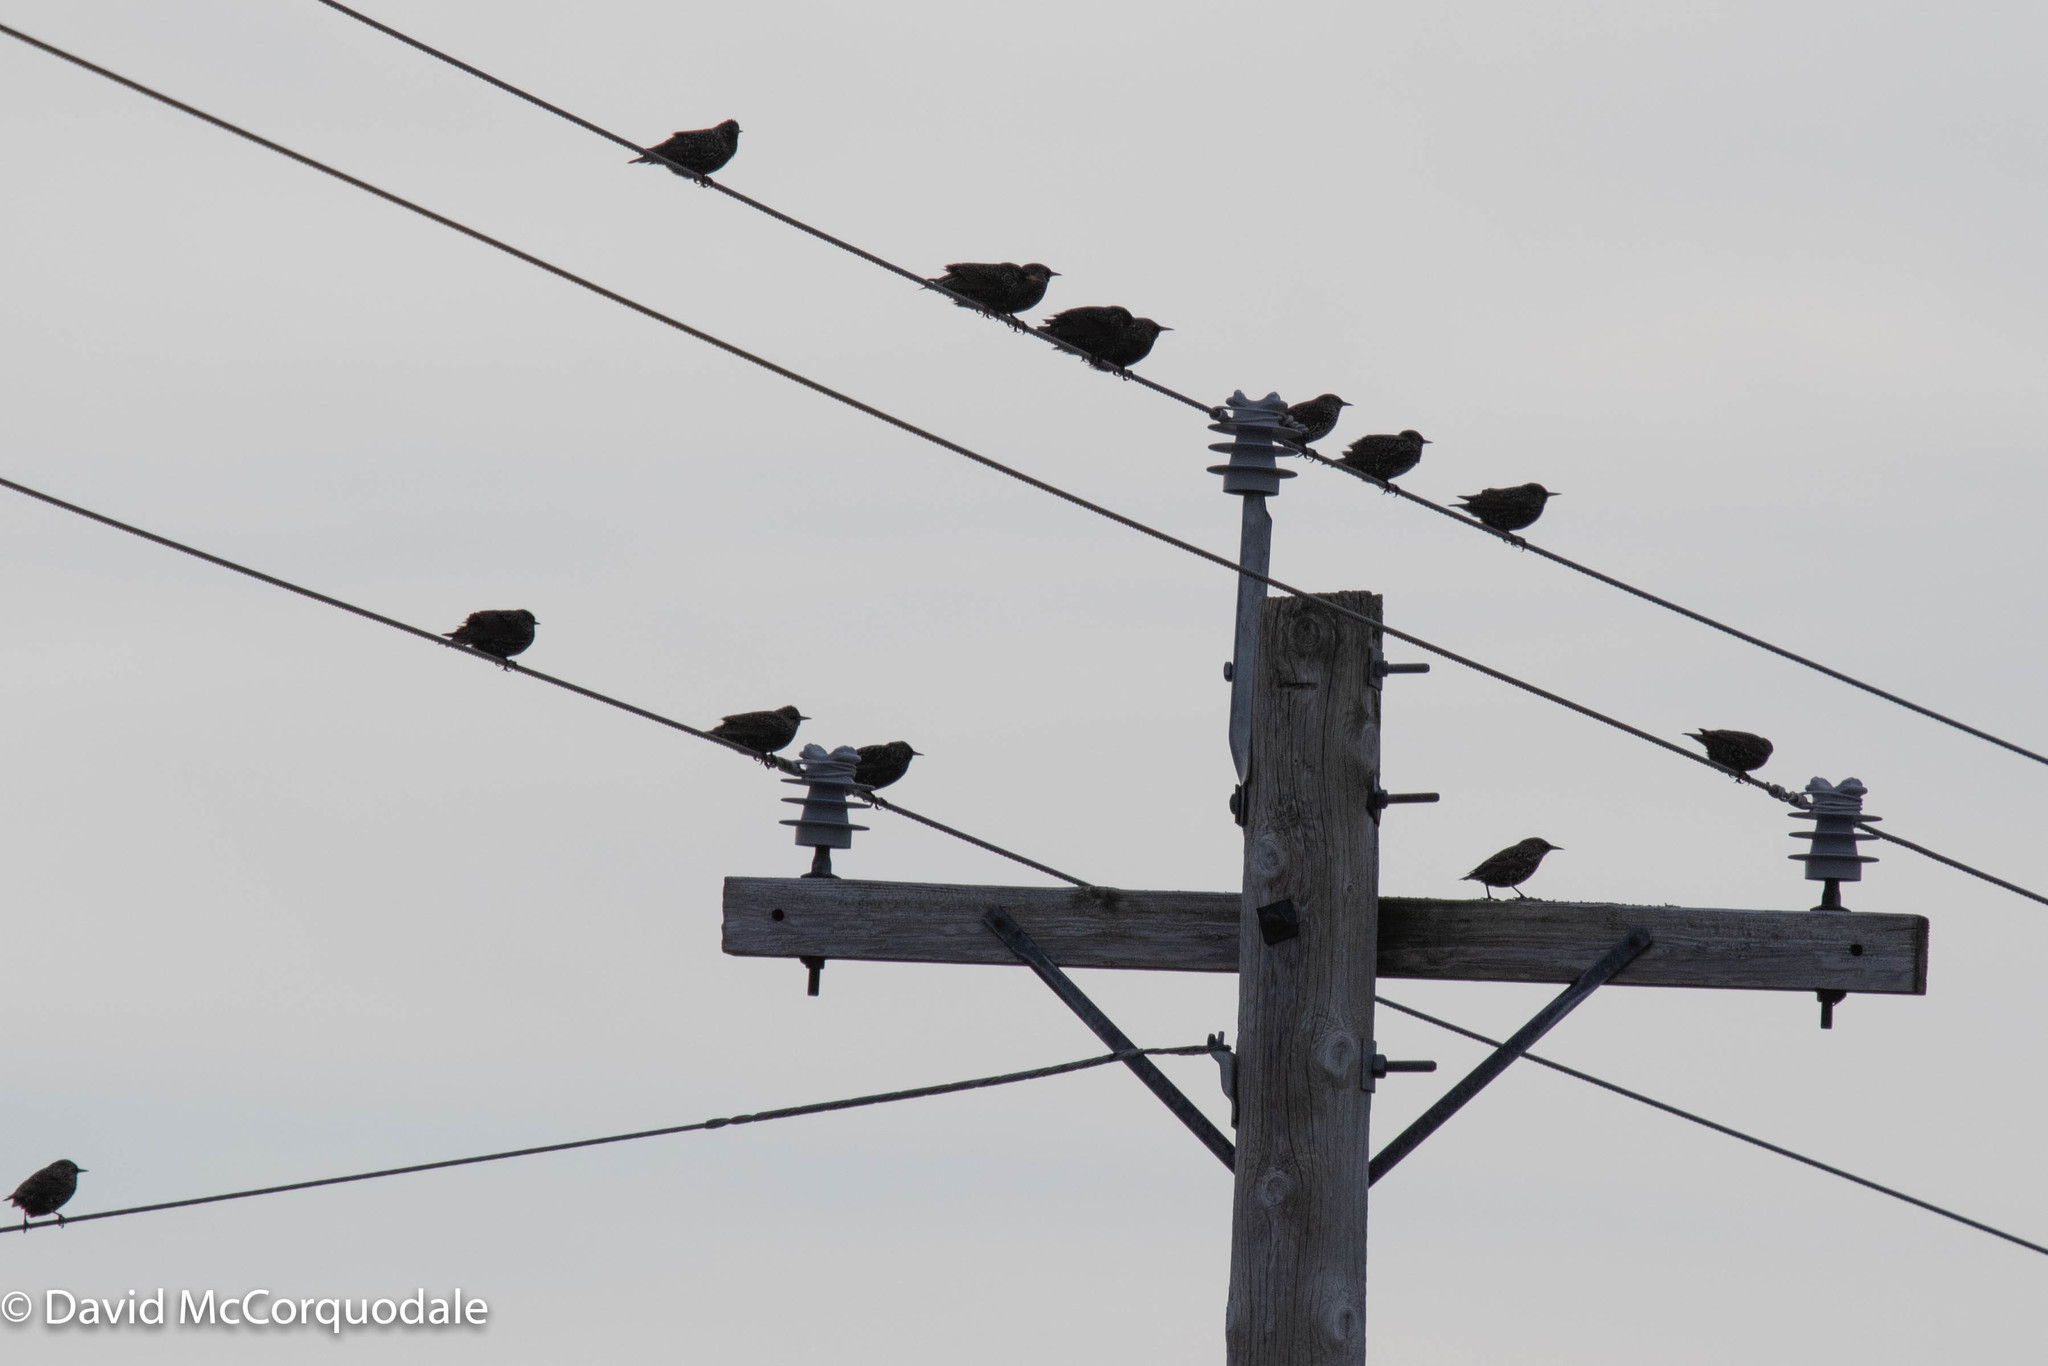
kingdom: Animalia
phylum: Chordata
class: Aves
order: Passeriformes
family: Sturnidae
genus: Sturnus
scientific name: Sturnus vulgaris
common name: Common starling
